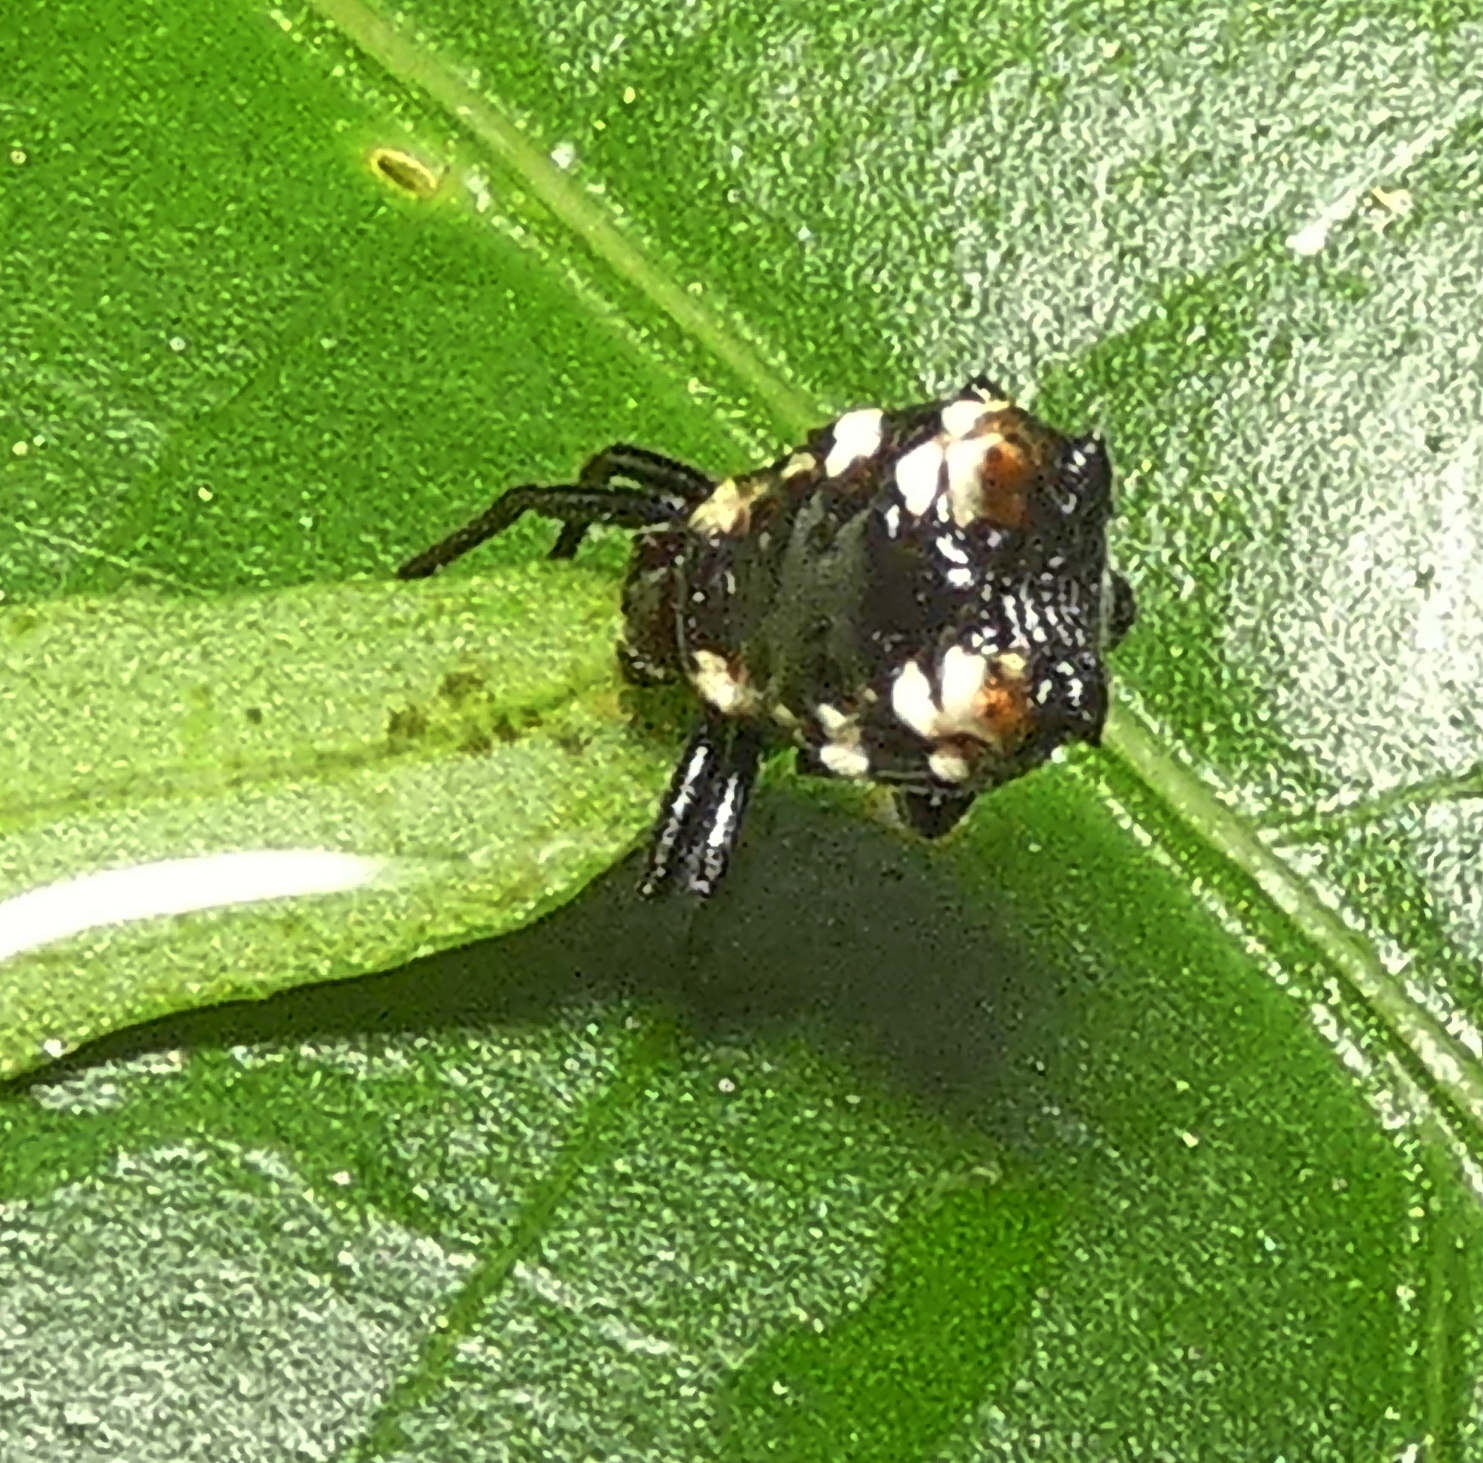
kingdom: Animalia
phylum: Arthropoda
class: Arachnida
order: Araneae
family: Araneidae
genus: Micrathena
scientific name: Micrathena patruelis
